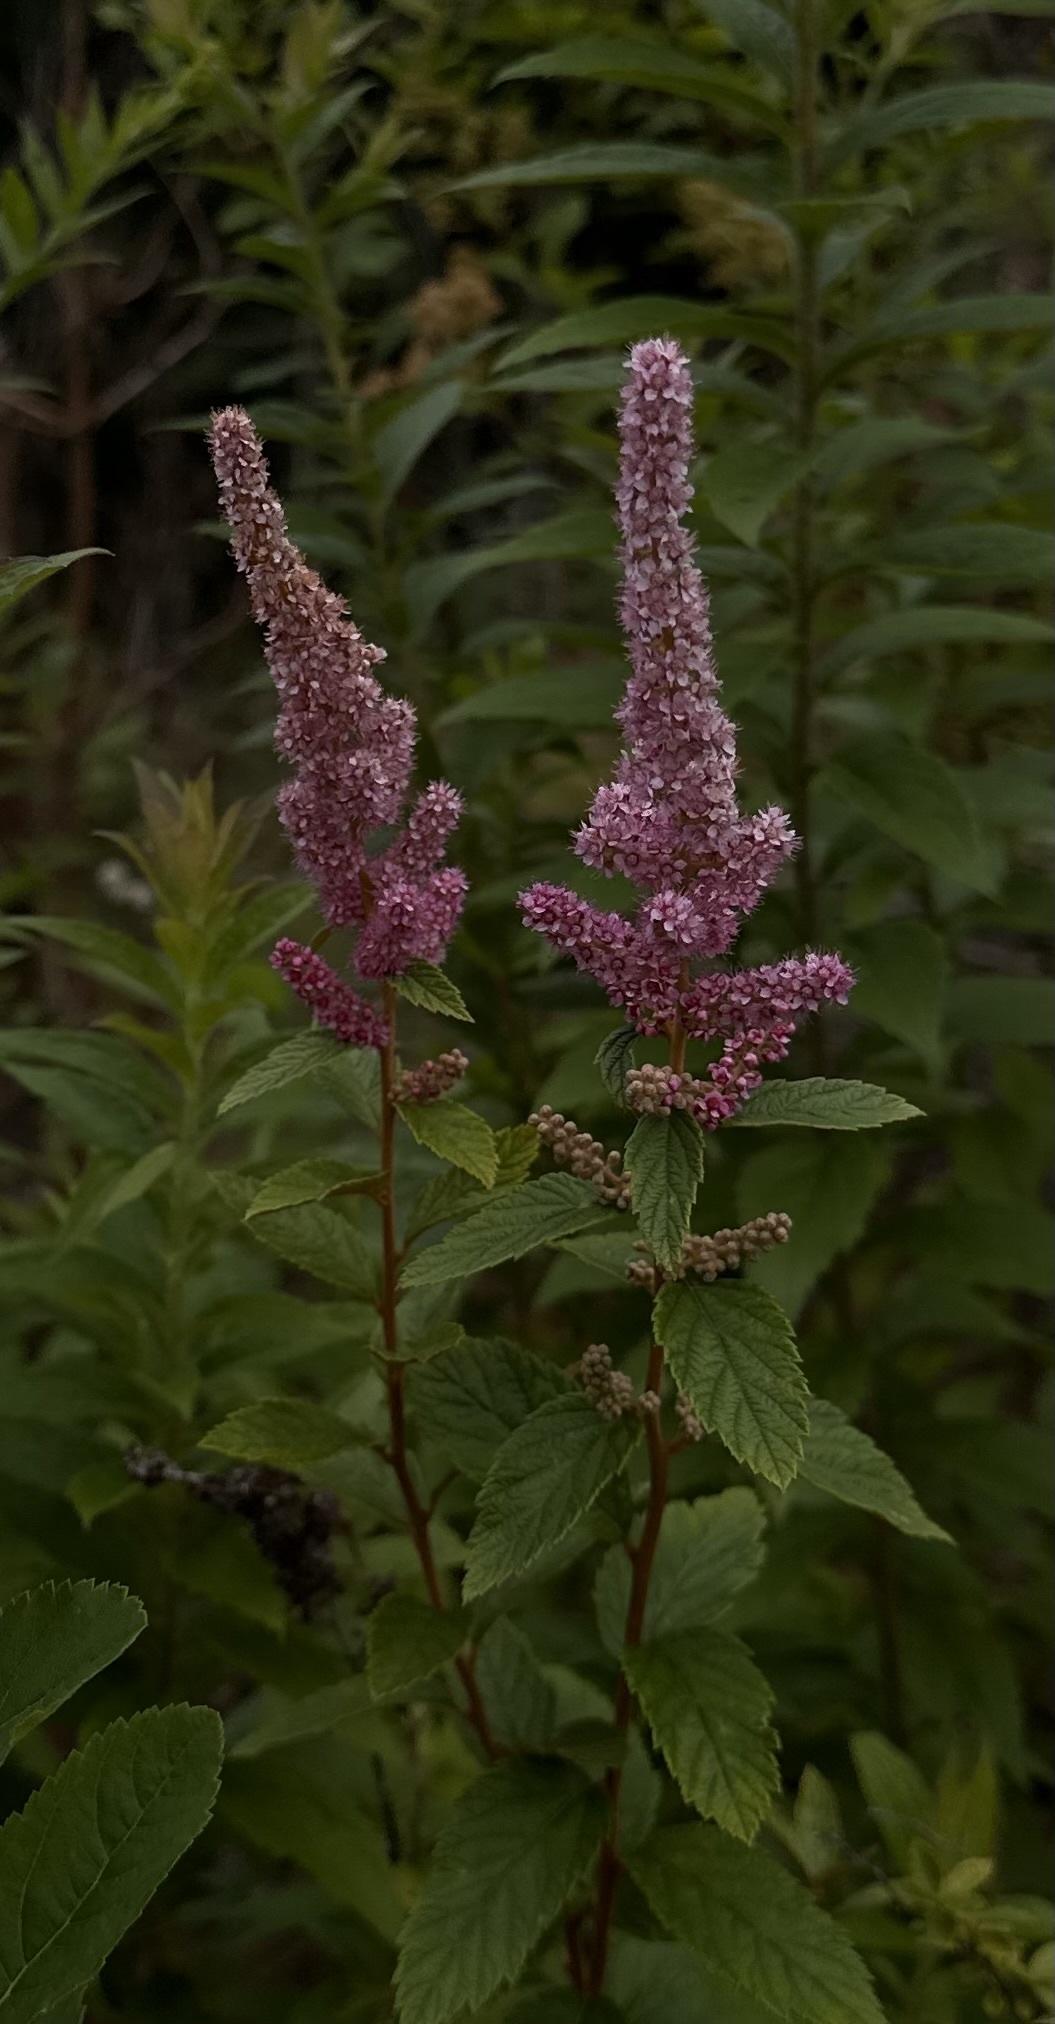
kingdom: Plantae
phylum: Tracheophyta
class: Magnoliopsida
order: Rosales
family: Rosaceae
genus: Spiraea
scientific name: Spiraea tomentosa
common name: Hardhack
